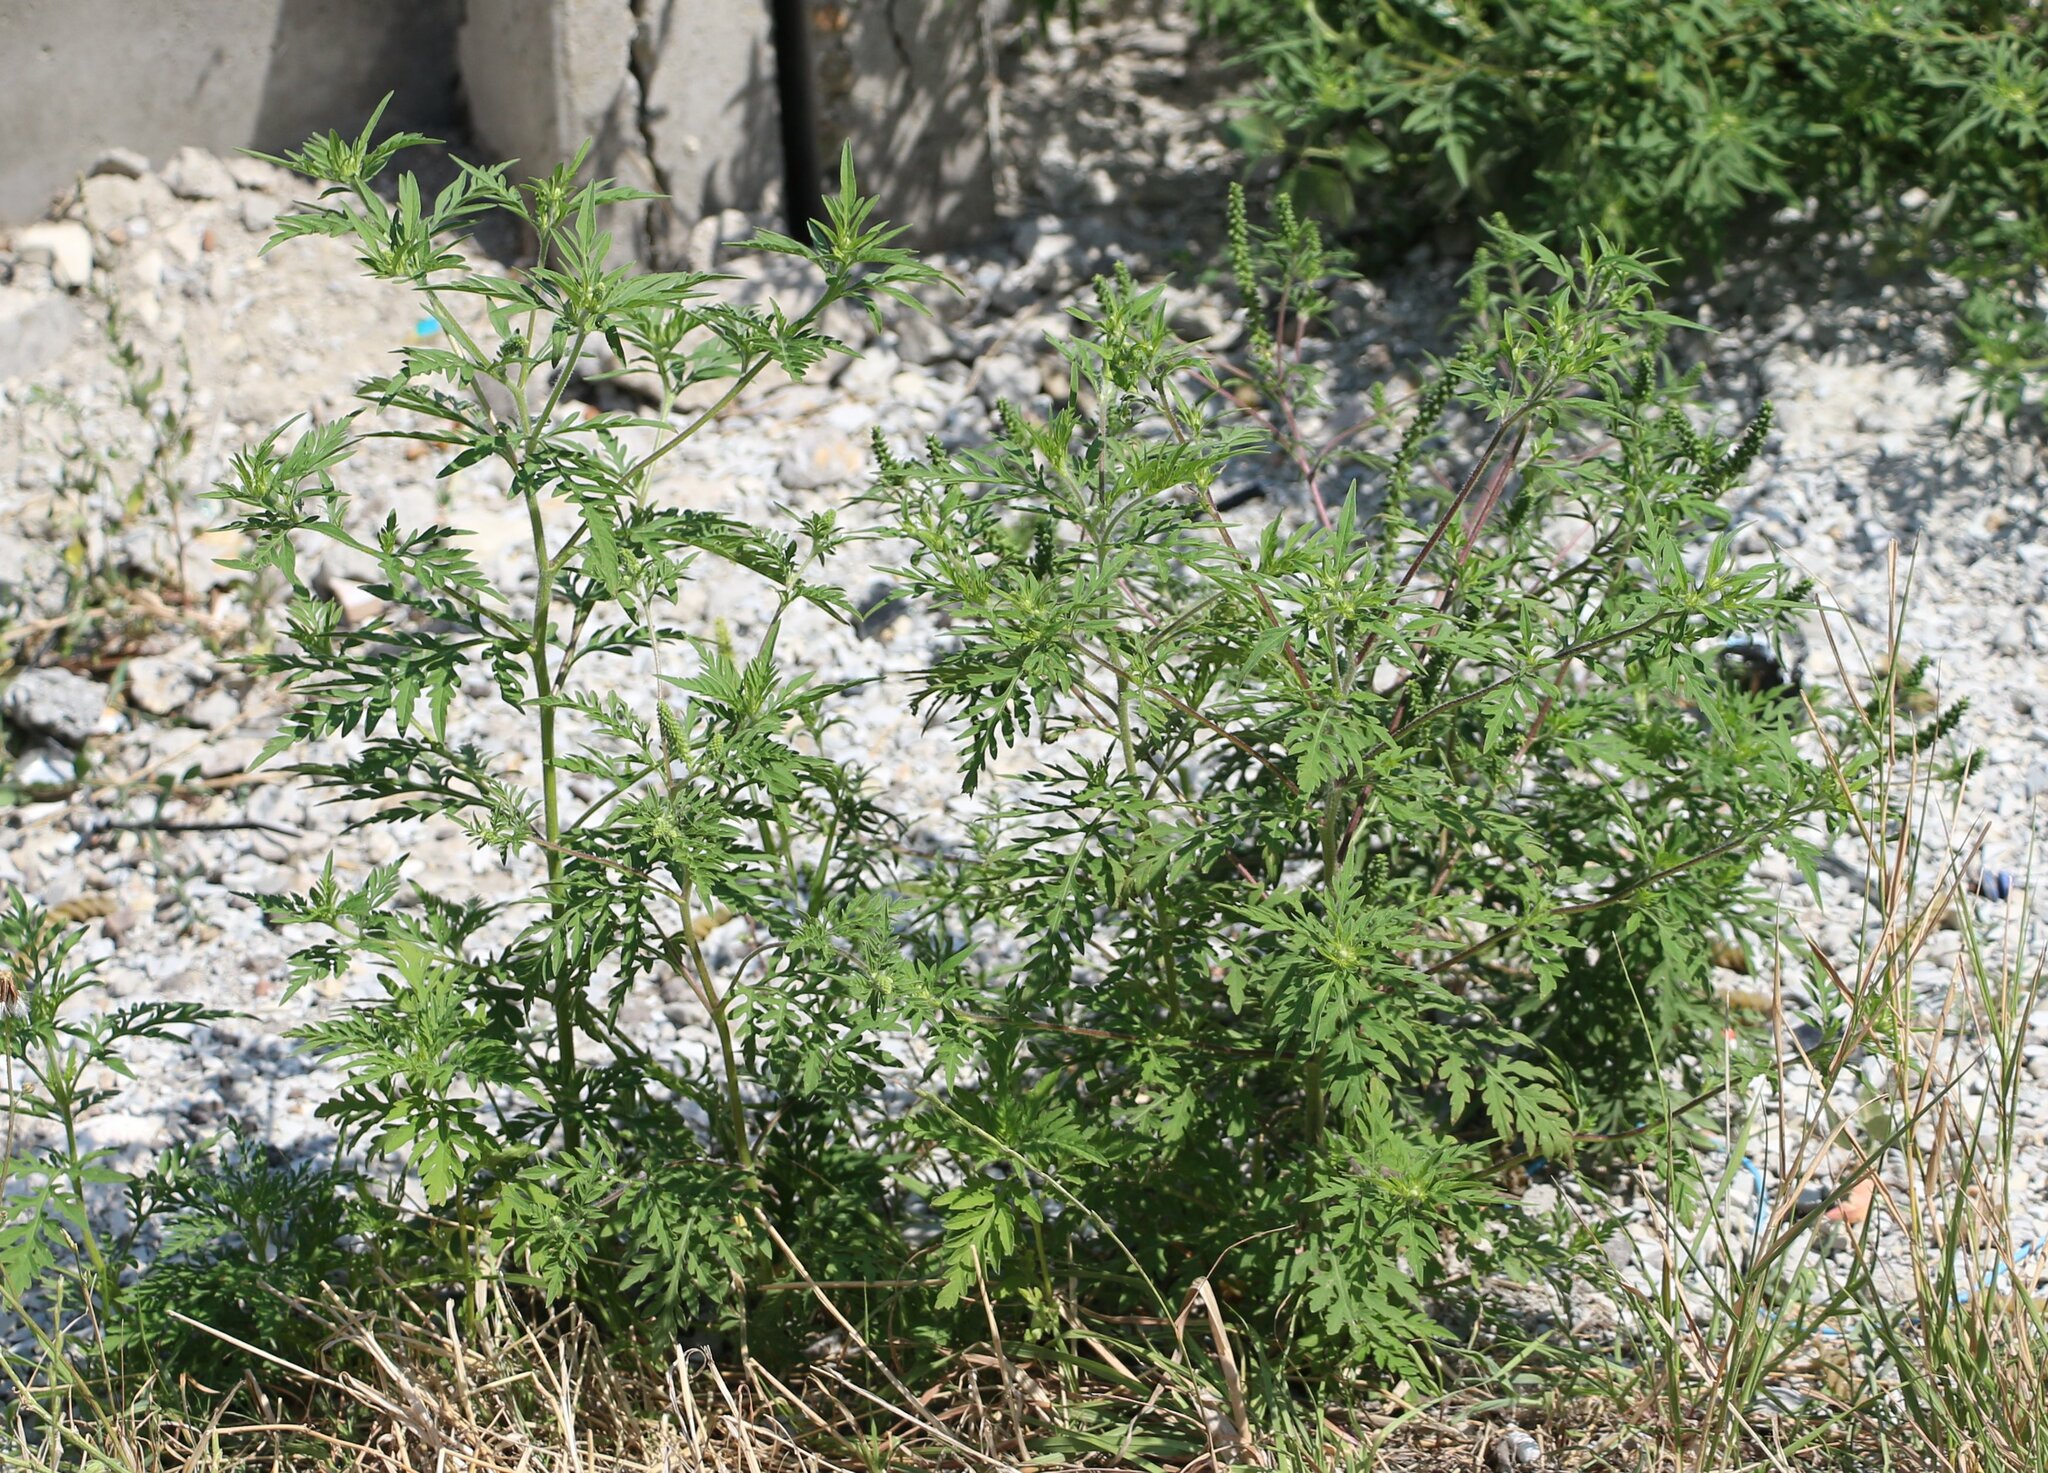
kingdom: Plantae
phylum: Tracheophyta
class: Magnoliopsida
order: Asterales
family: Asteraceae
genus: Ambrosia
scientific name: Ambrosia artemisiifolia
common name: Annual ragweed
